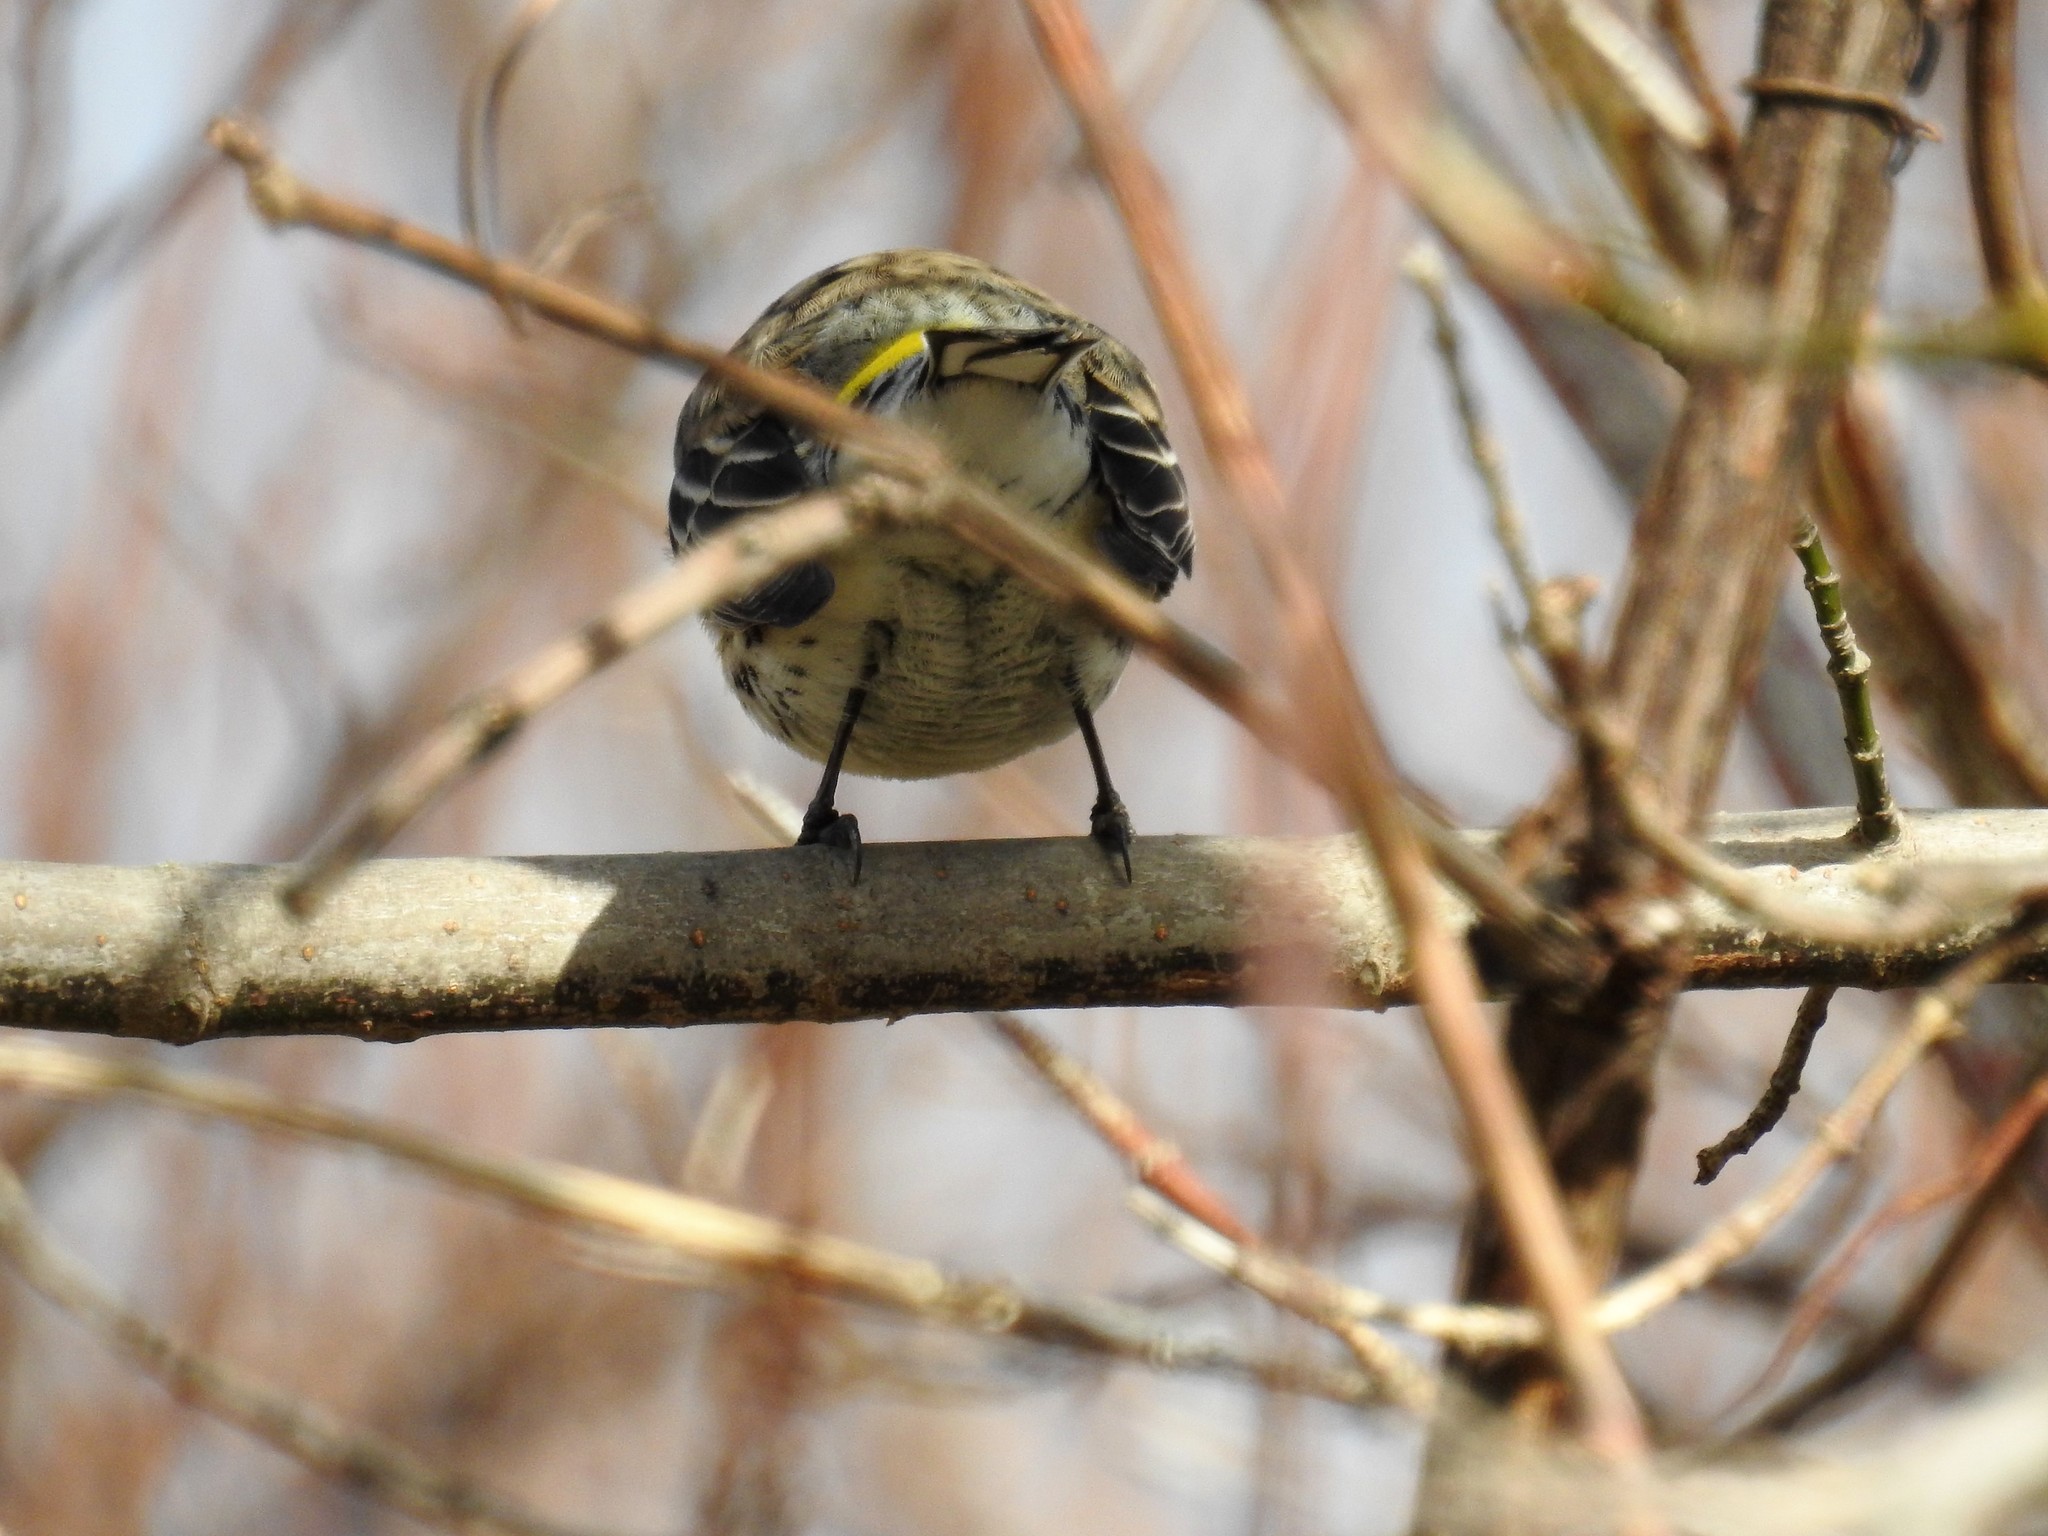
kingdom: Animalia
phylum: Chordata
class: Aves
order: Passeriformes
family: Parulidae
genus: Setophaga
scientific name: Setophaga coronata
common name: Myrtle warbler
